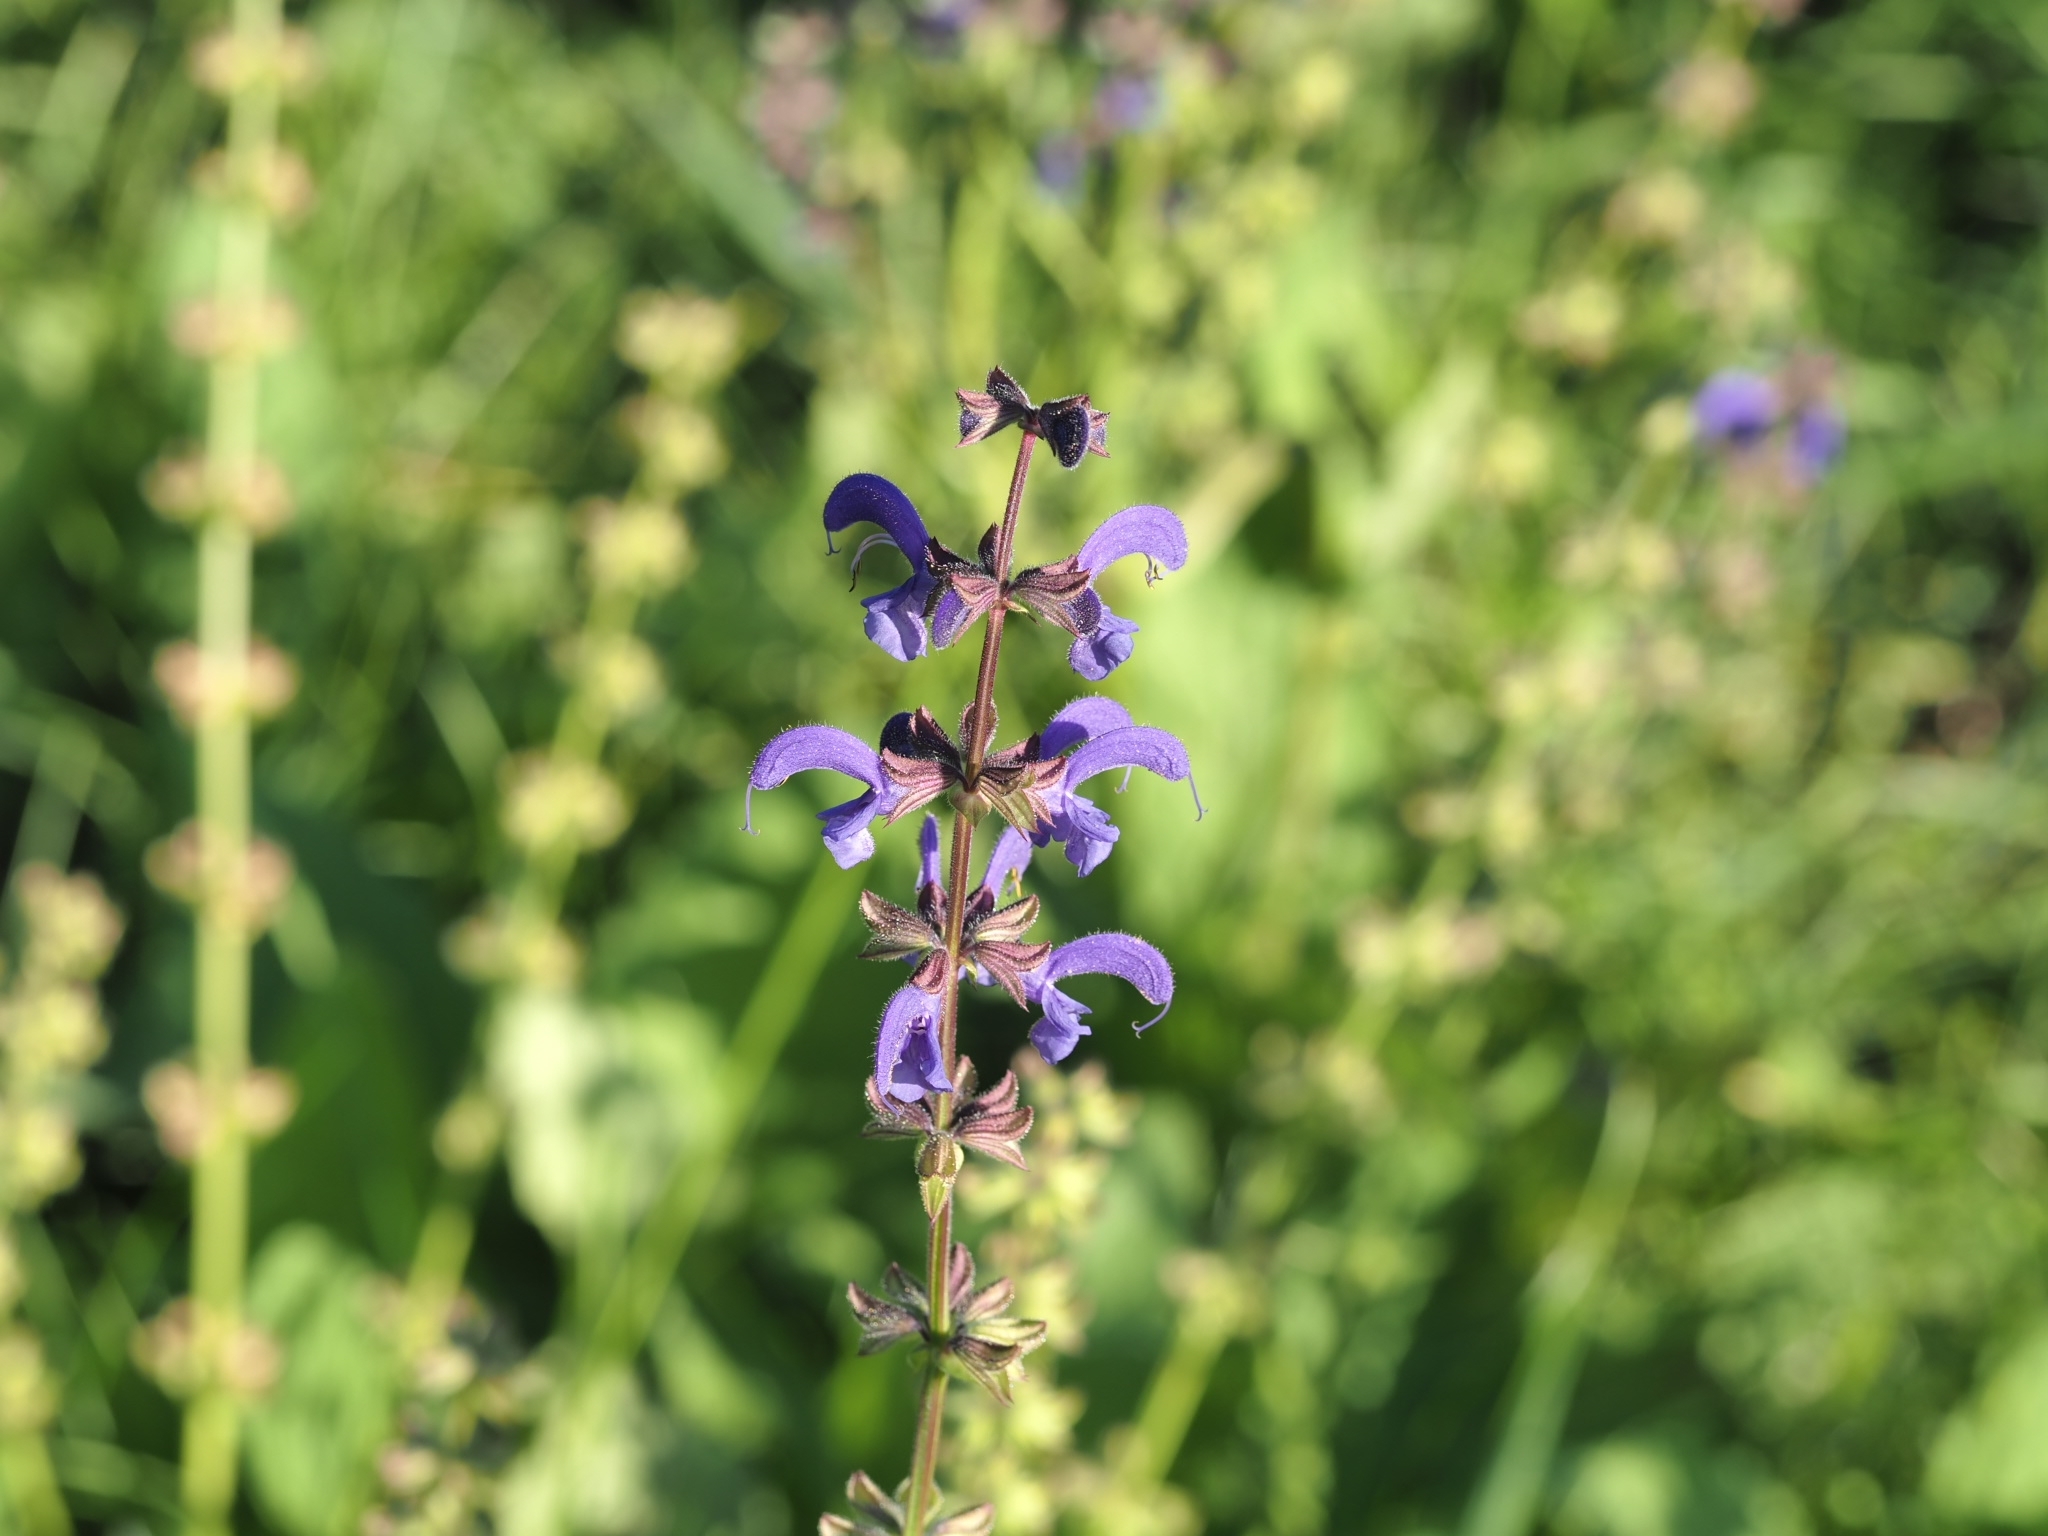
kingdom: Plantae
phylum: Tracheophyta
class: Magnoliopsida
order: Lamiales
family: Lamiaceae
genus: Salvia
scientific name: Salvia pratensis
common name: Meadow sage
